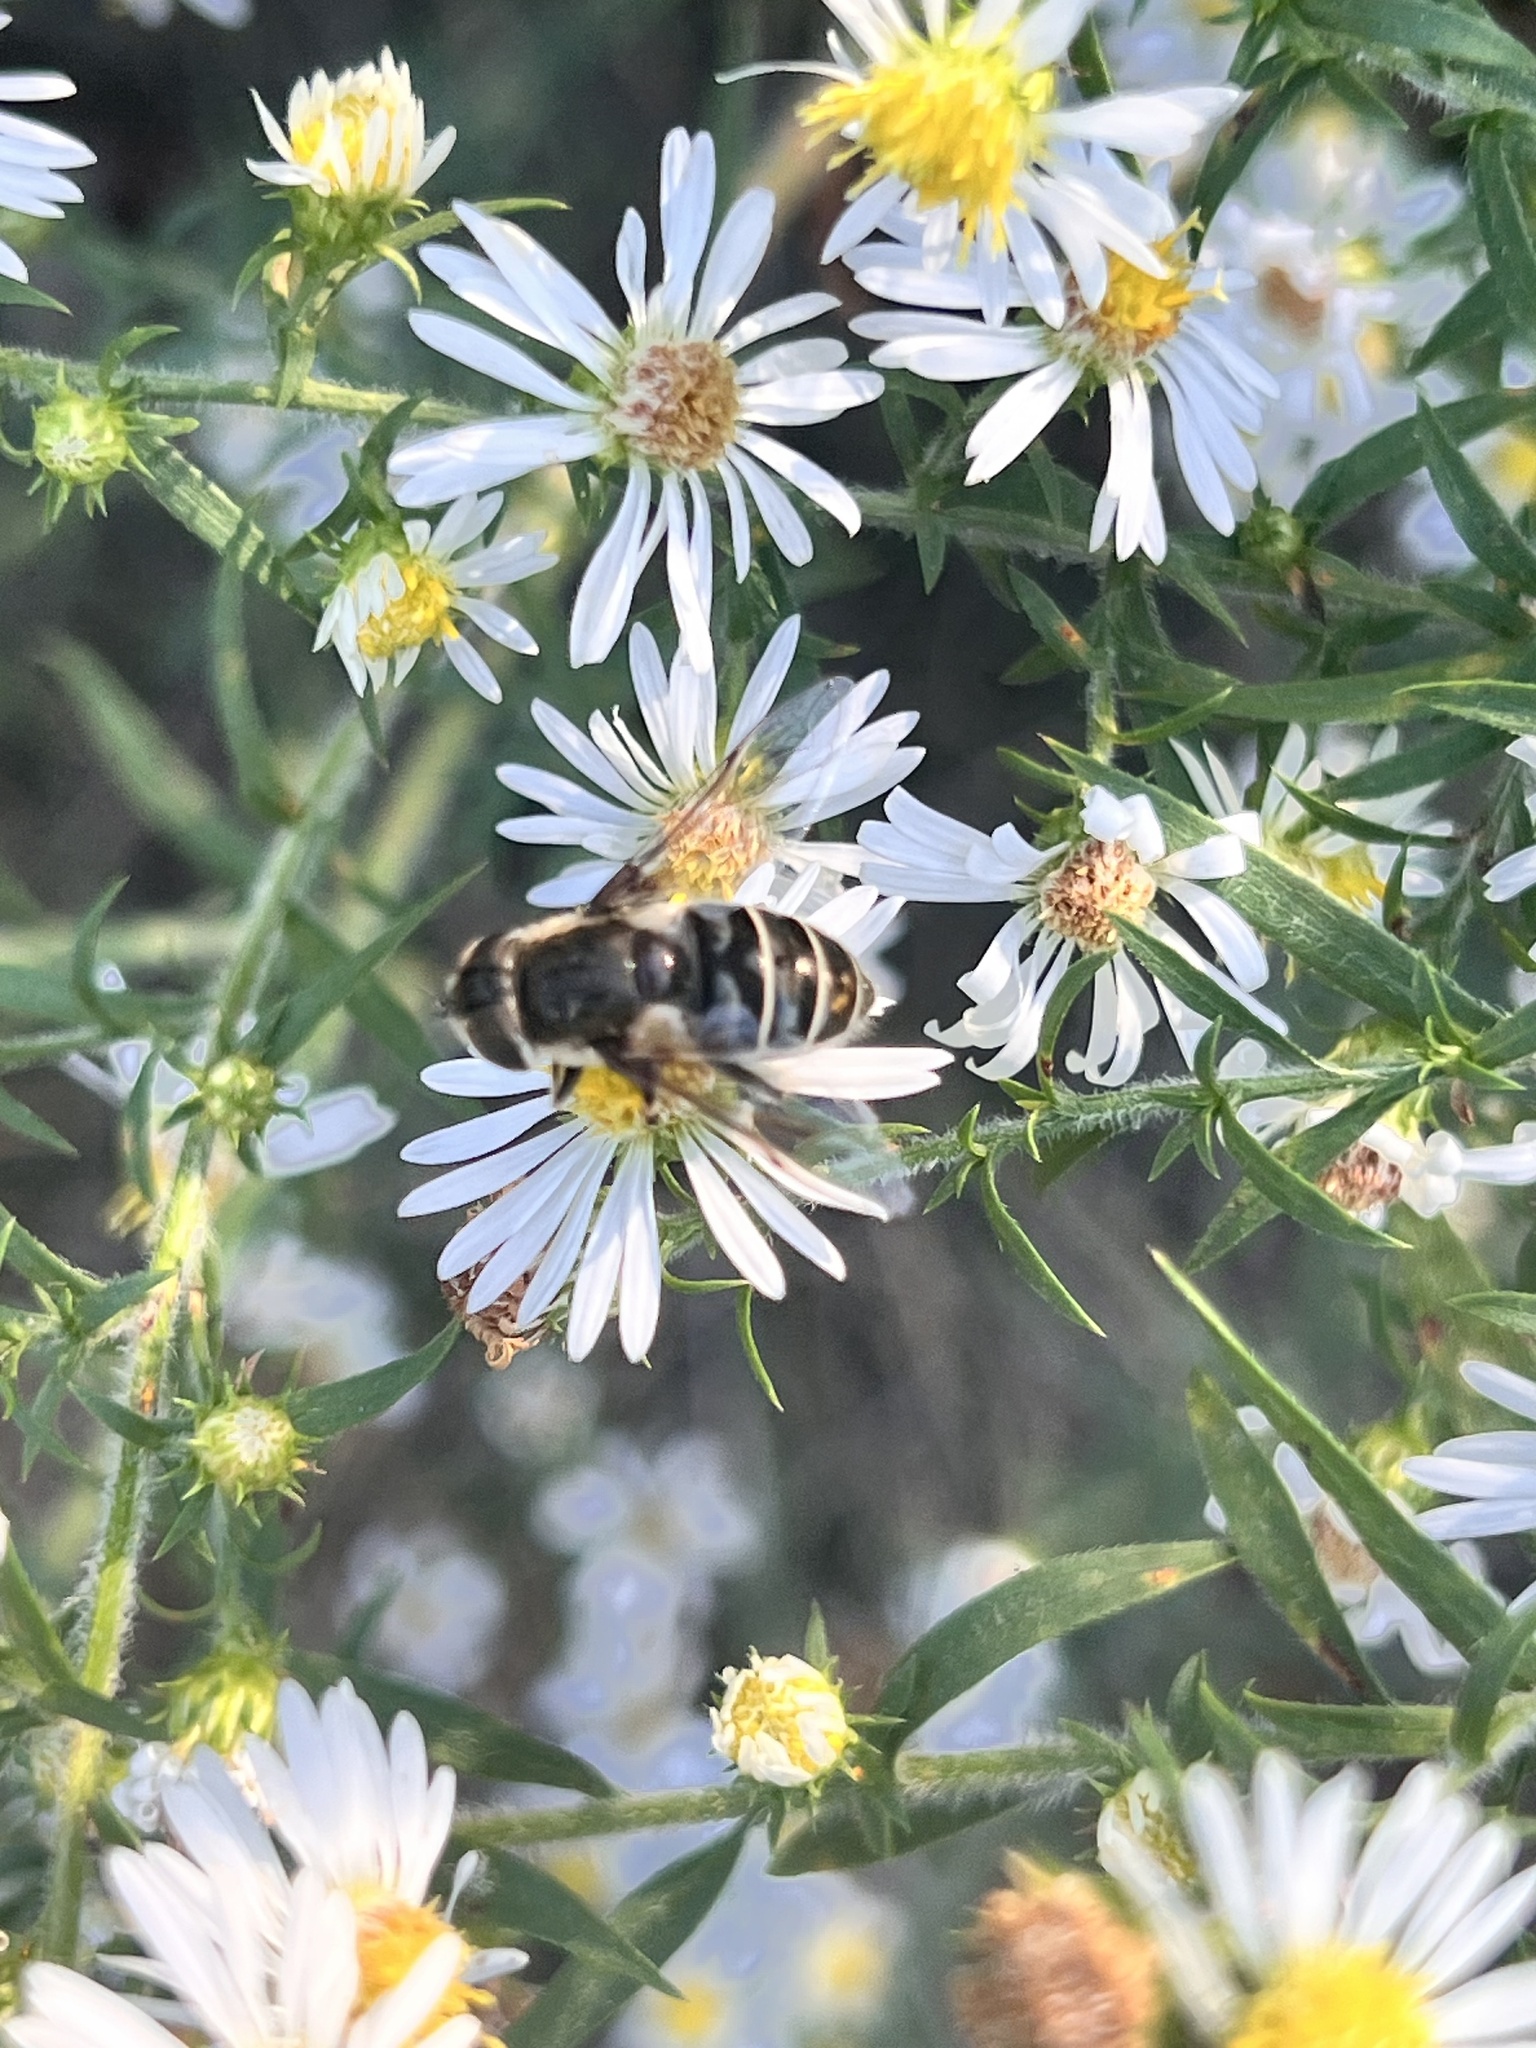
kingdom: Animalia
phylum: Arthropoda
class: Insecta
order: Diptera
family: Syrphidae
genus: Eristalis
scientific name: Eristalis dimidiata
